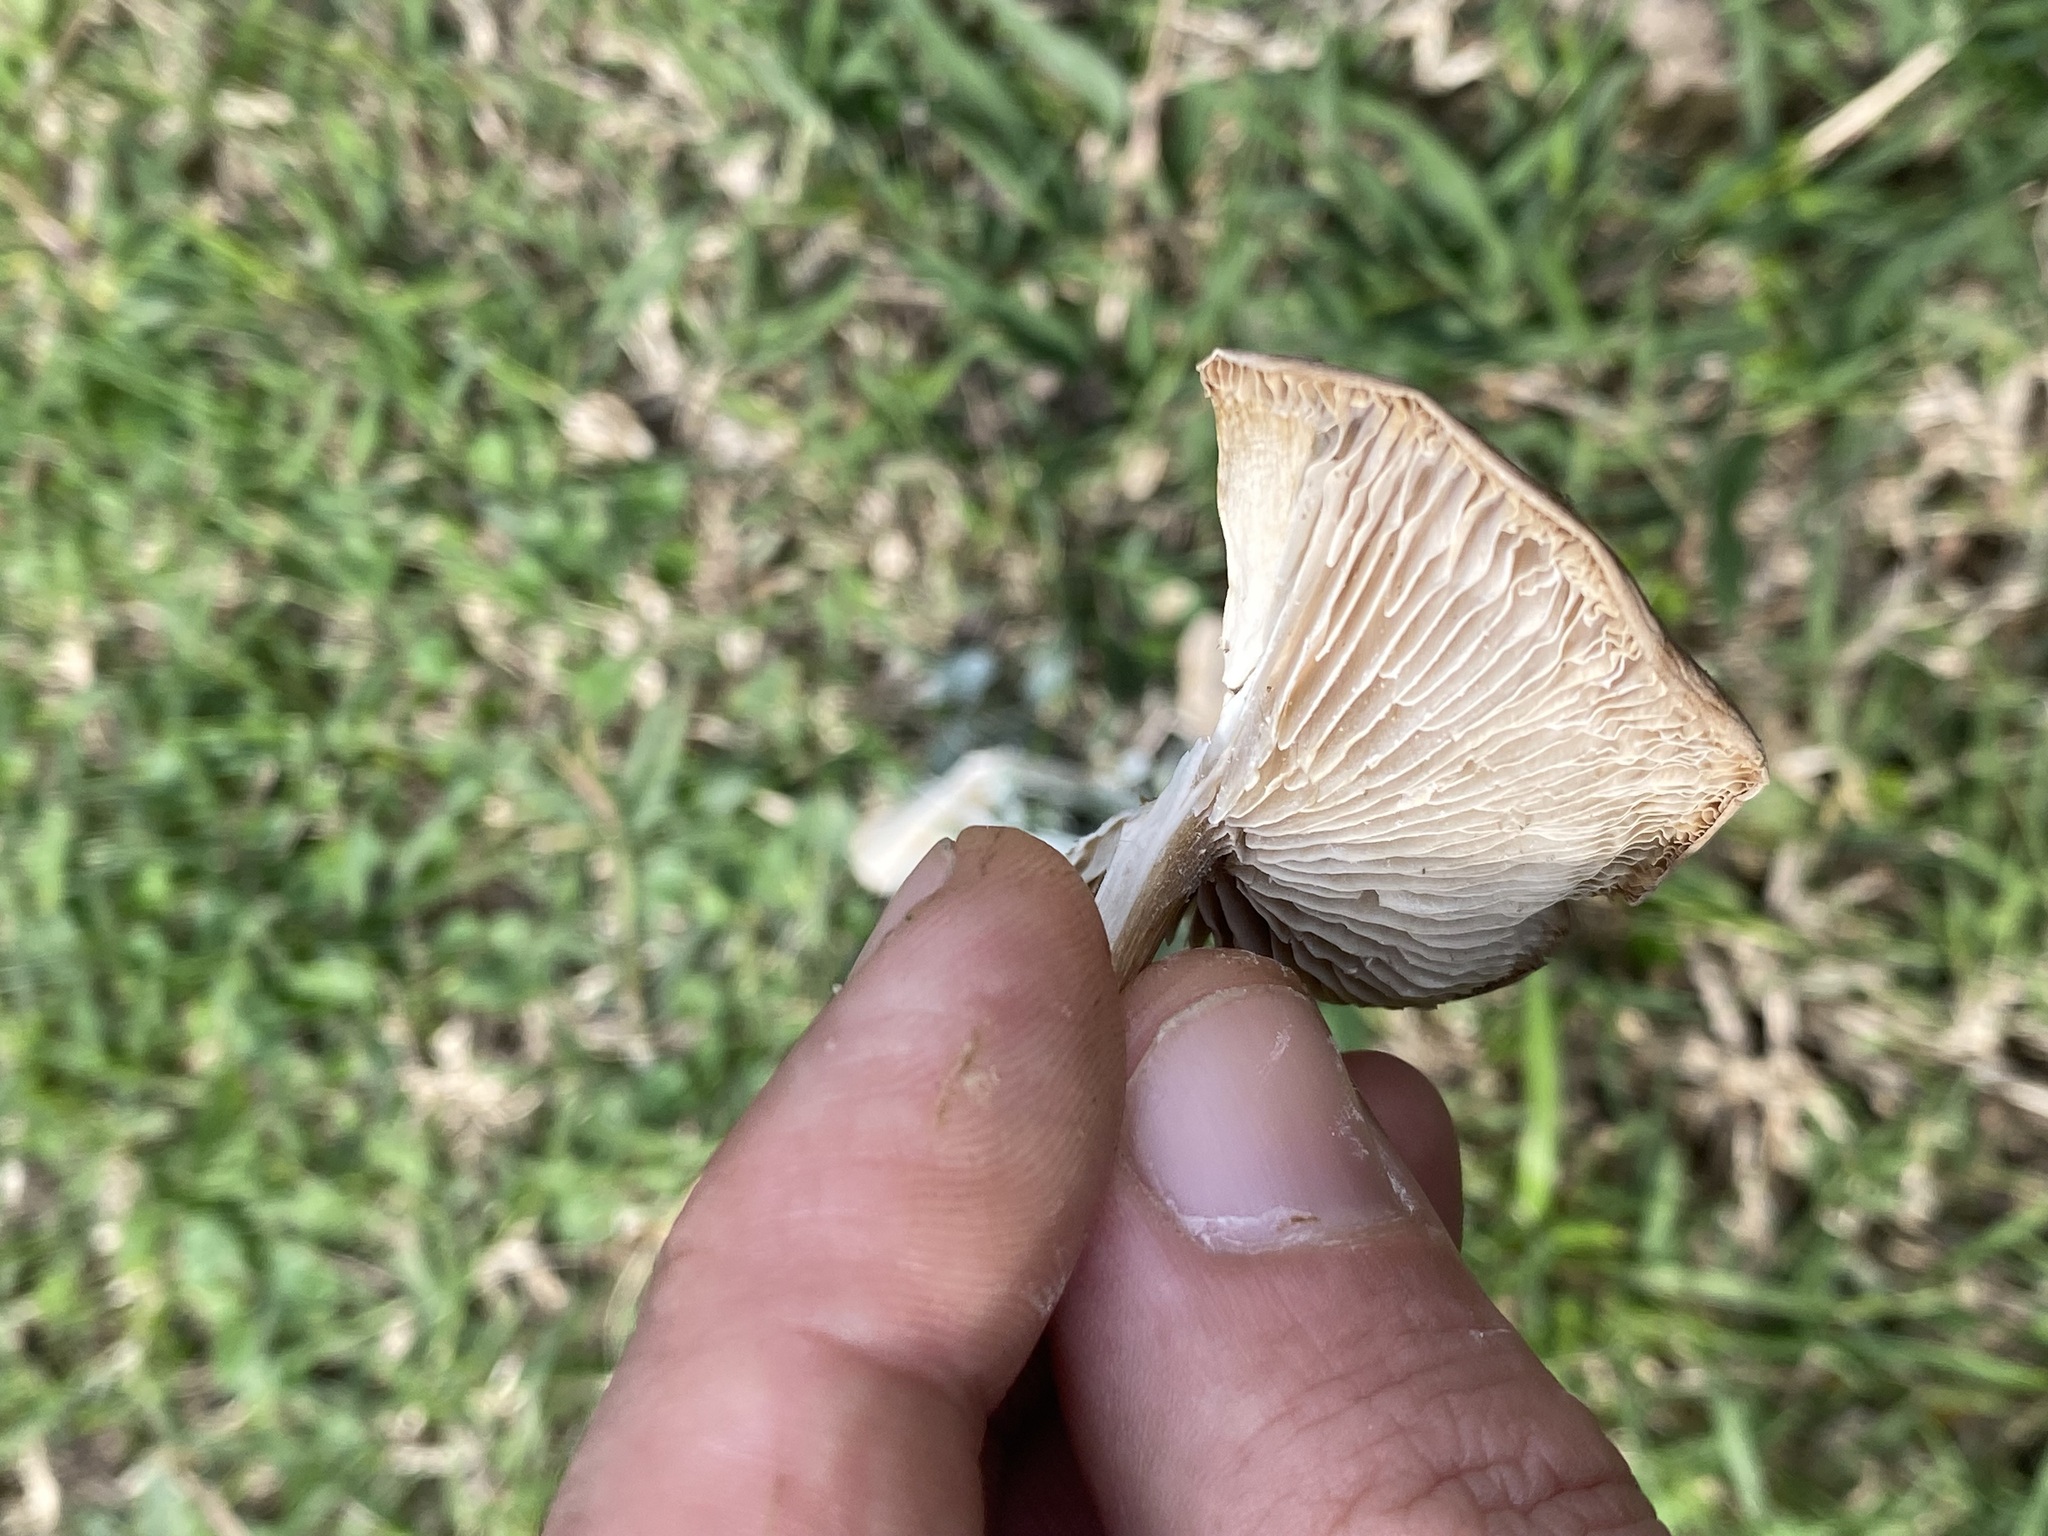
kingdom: Fungi
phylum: Basidiomycota
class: Agaricomycetes
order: Agaricales
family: Tricholomataceae
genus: Melanoleuca
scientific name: Melanoleuca melaleuca
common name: Bald cavalier
